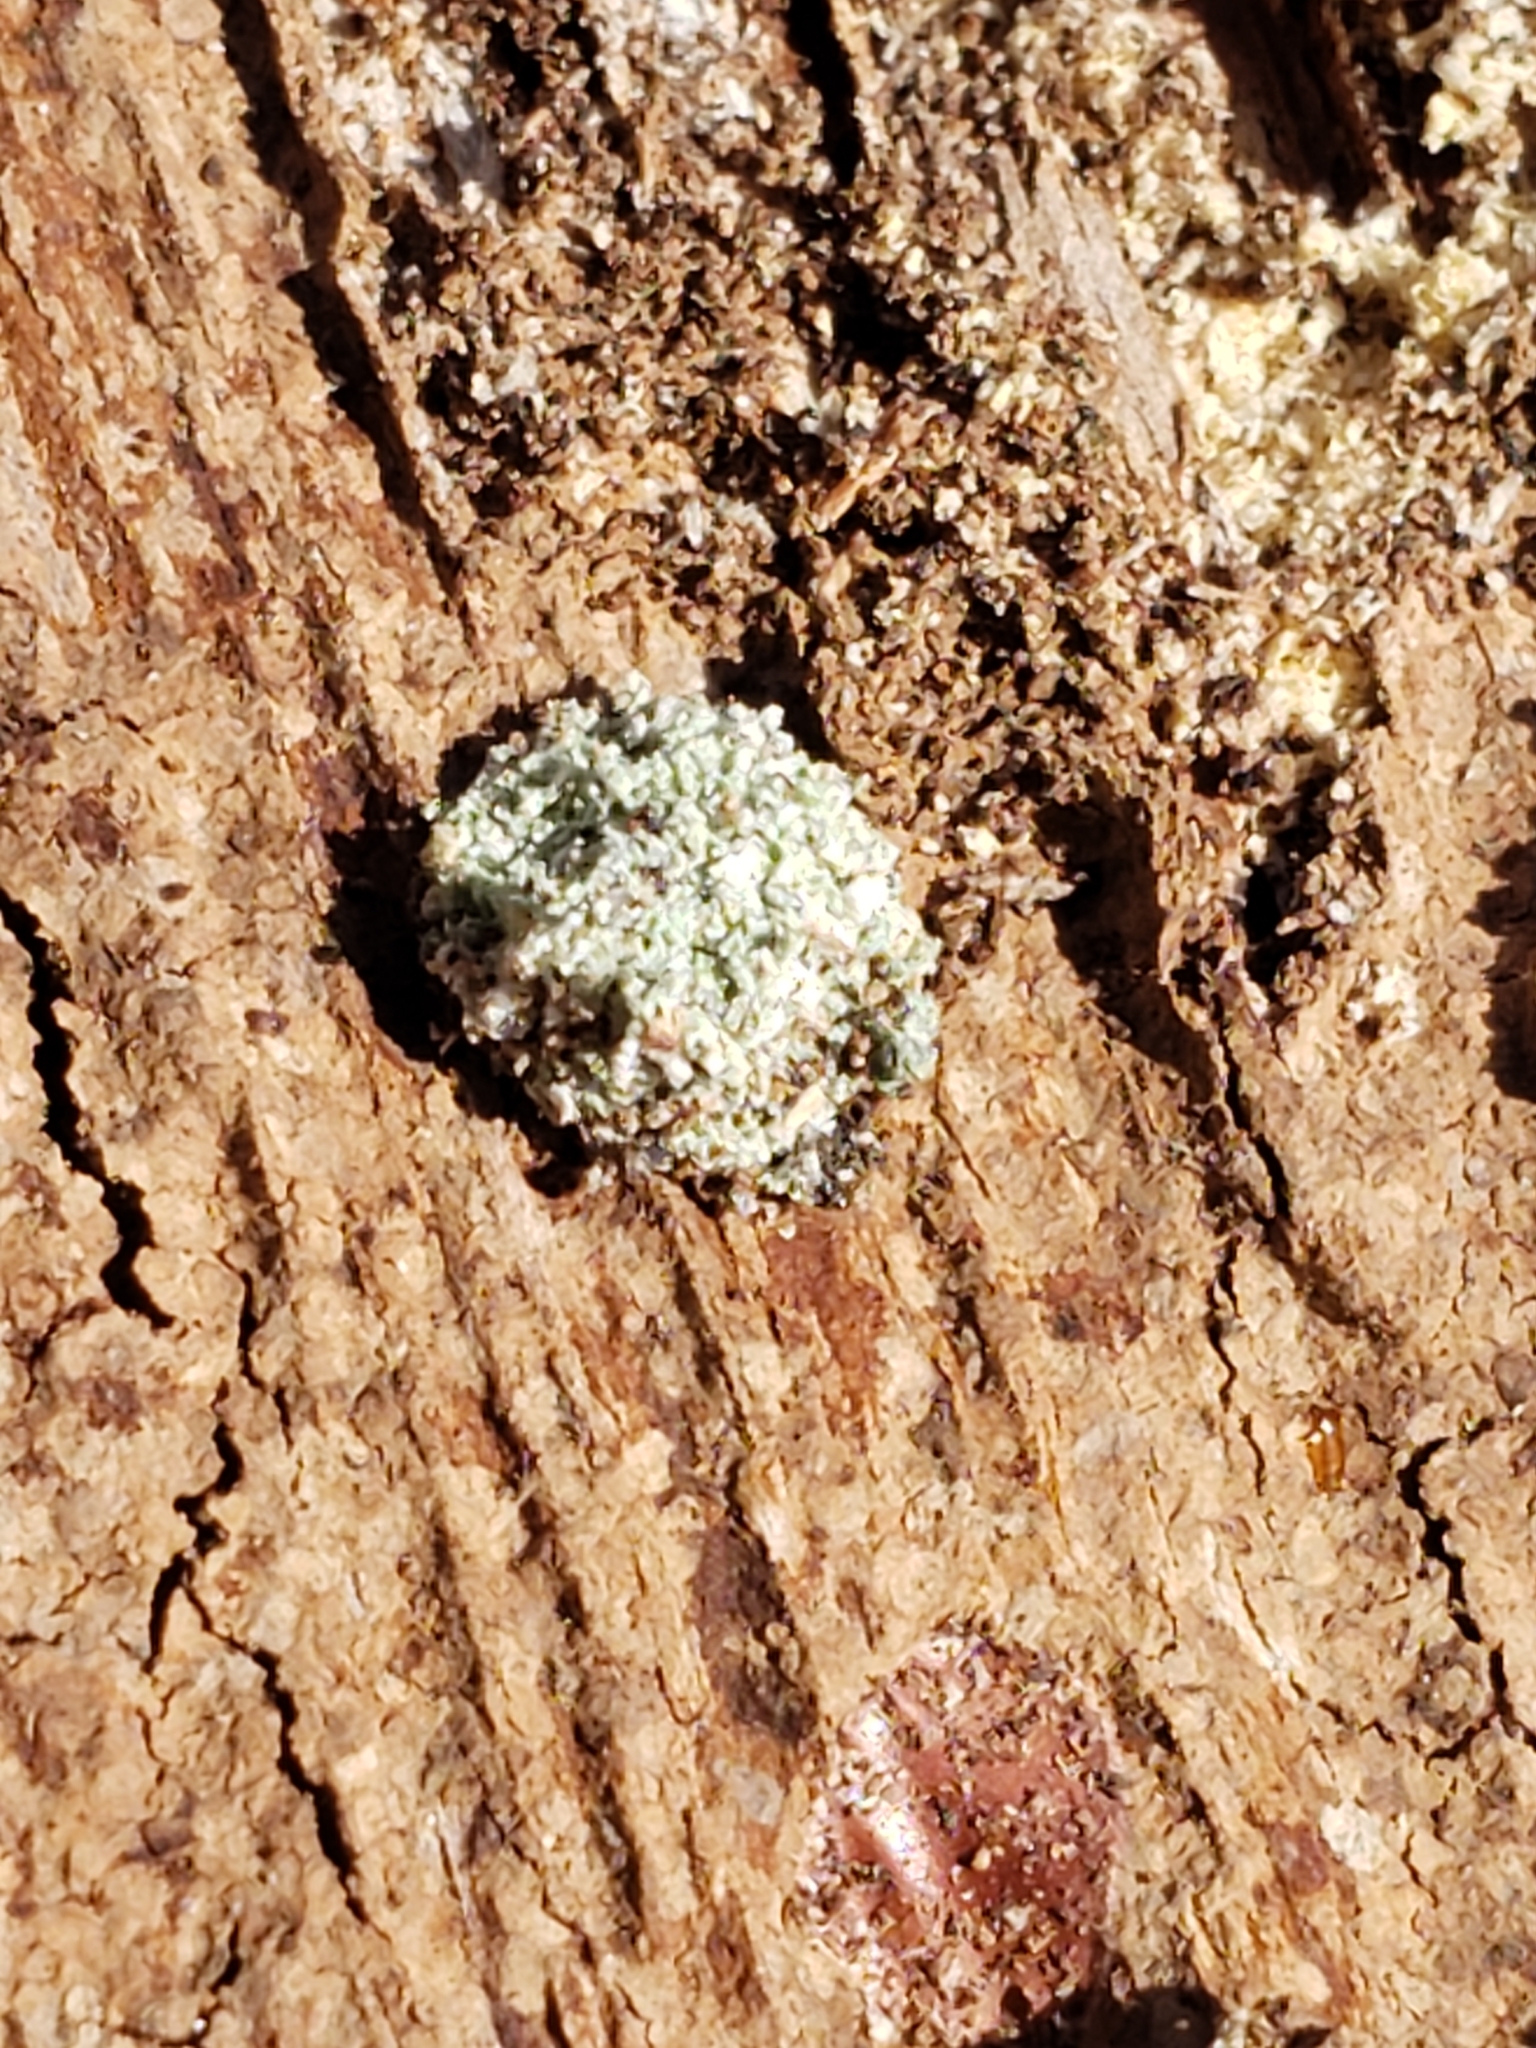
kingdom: Animalia
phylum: Arthropoda
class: Insecta
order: Neuroptera
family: Chrysopidae
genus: Leucochrysa
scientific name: Leucochrysa pavida
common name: Lichen-carrying green lacewing
